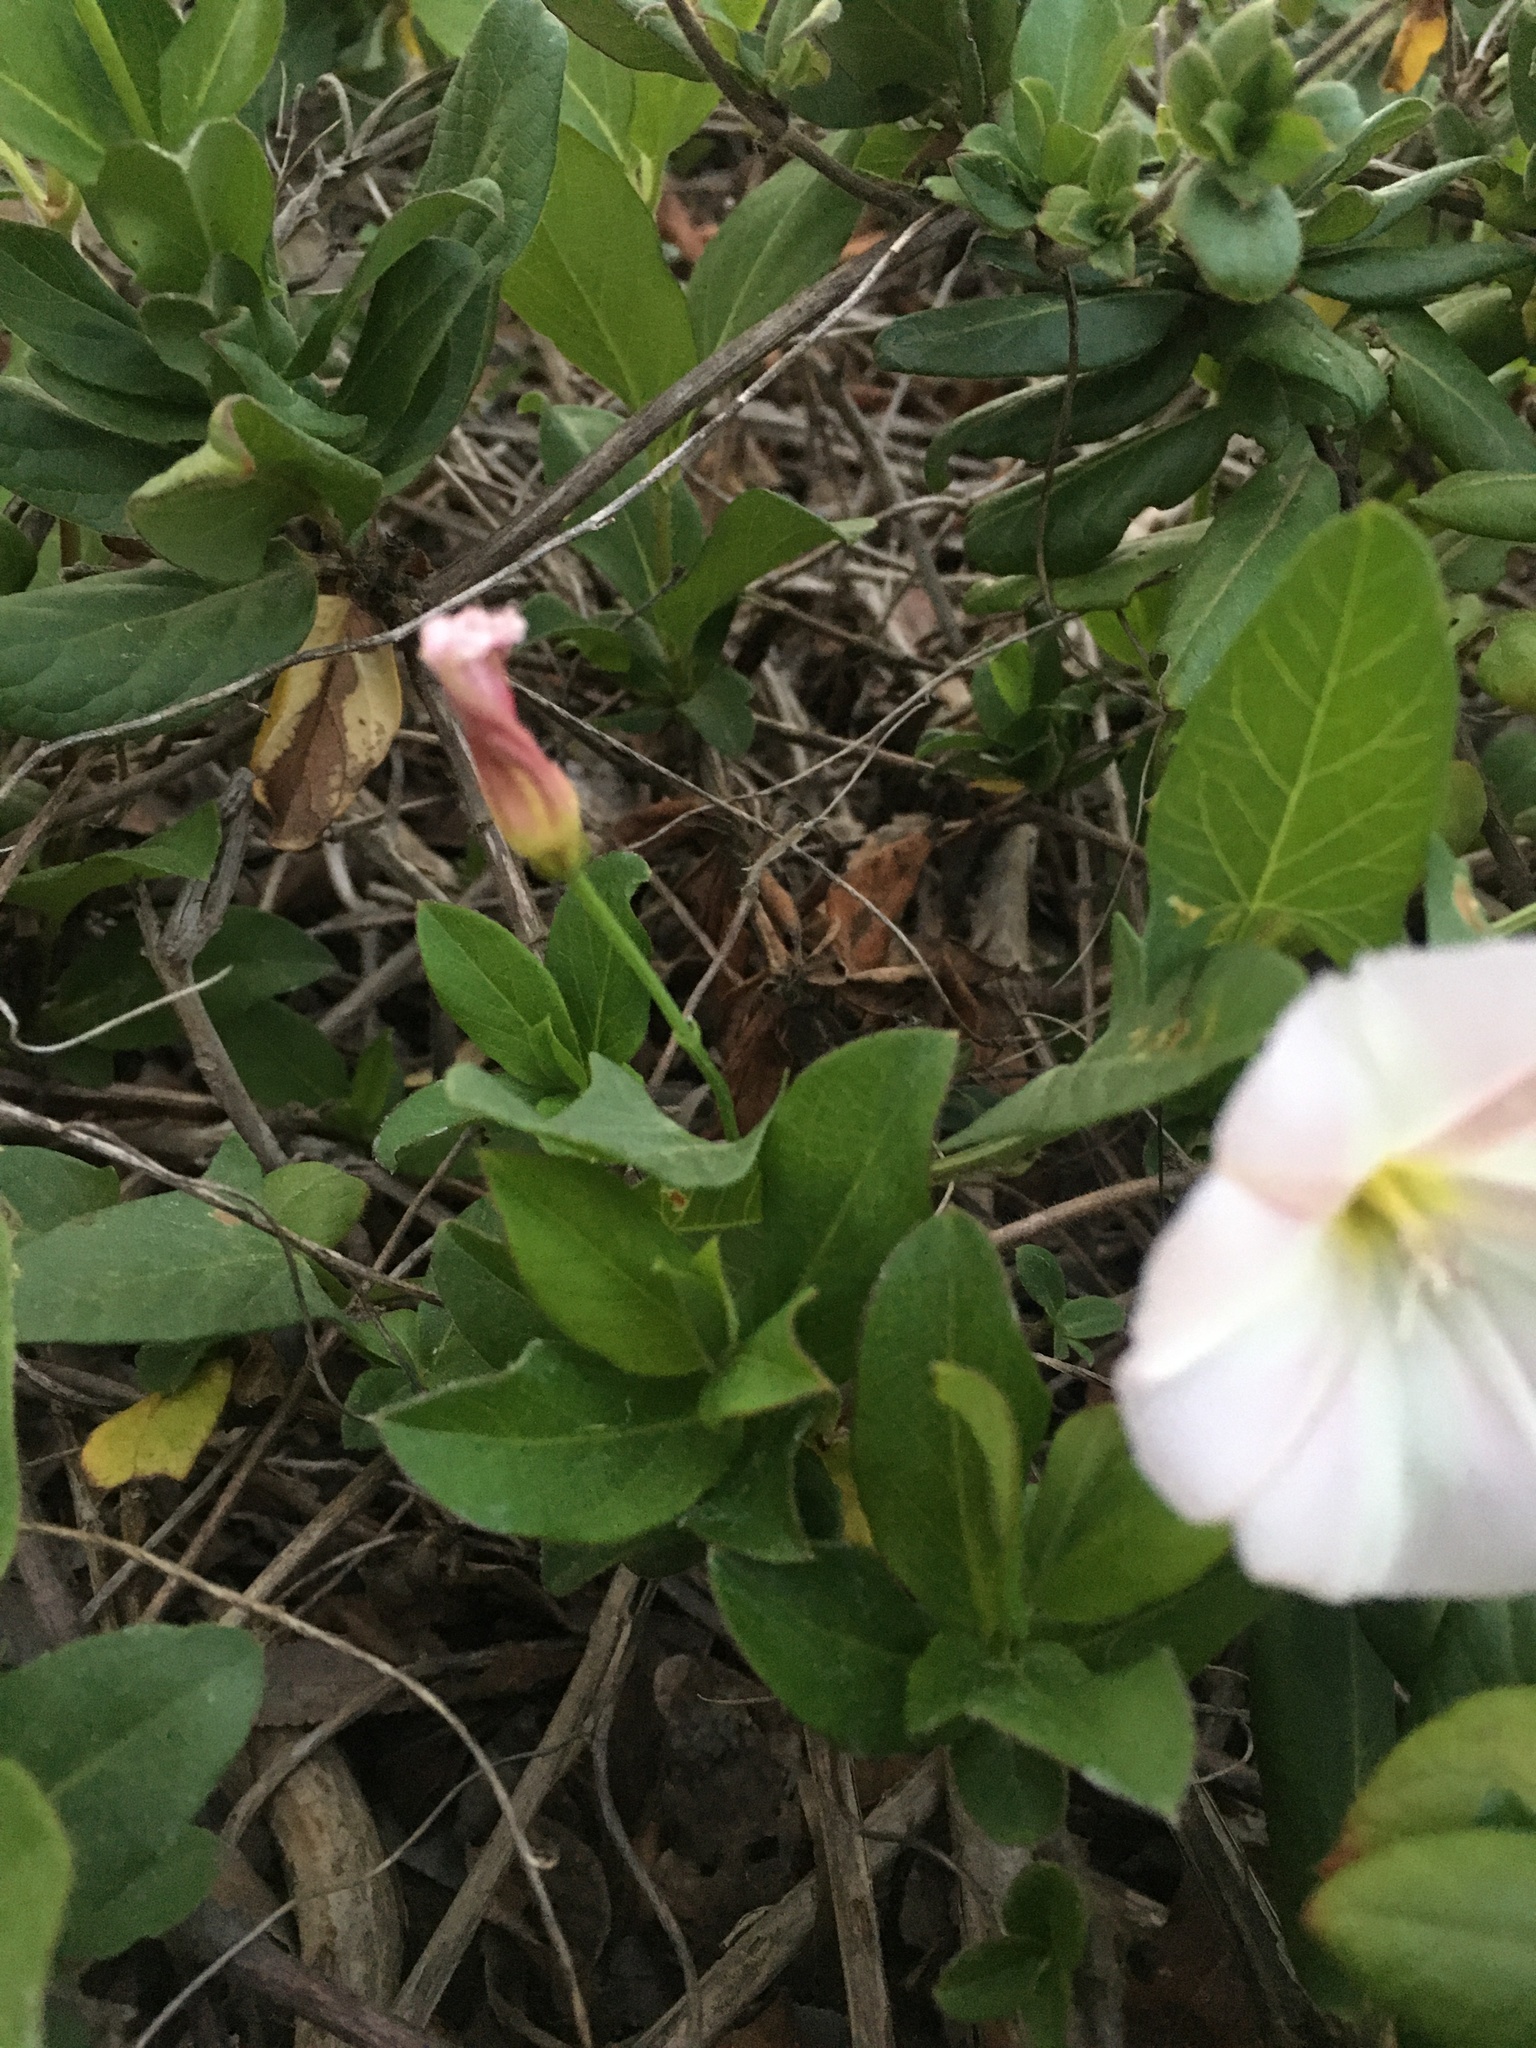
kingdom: Plantae
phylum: Tracheophyta
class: Magnoliopsida
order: Solanales
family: Convolvulaceae
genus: Convolvulus
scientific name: Convolvulus arvensis
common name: Field bindweed
